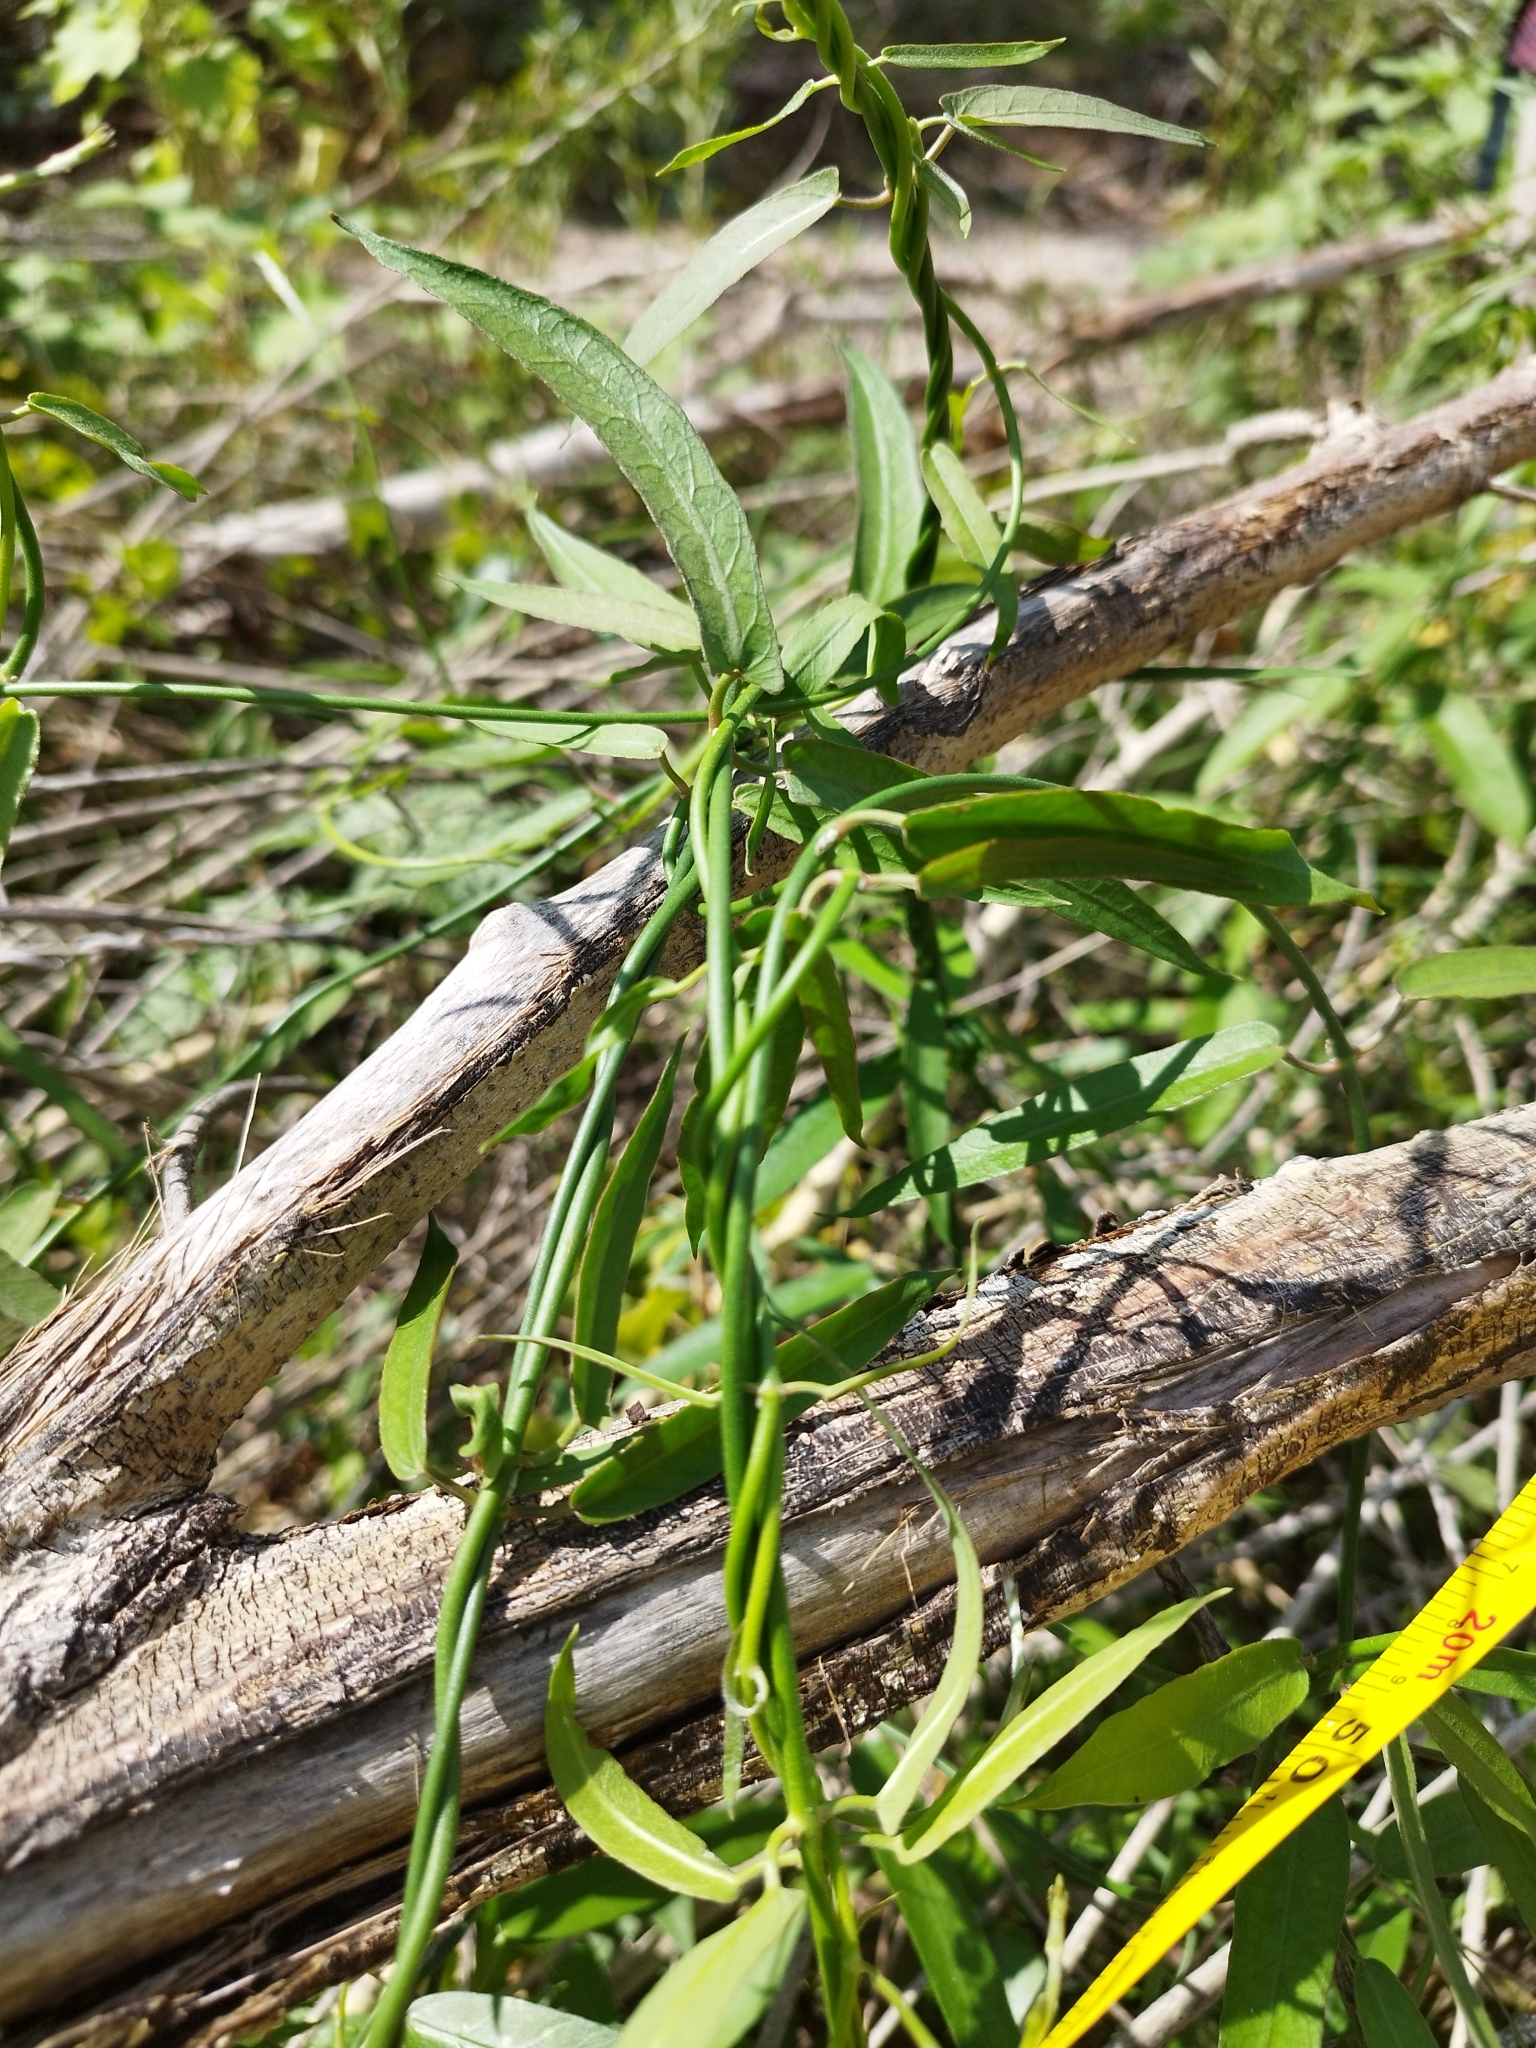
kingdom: Plantae
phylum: Tracheophyta
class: Magnoliopsida
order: Gentianales
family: Apocynaceae
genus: Funastrum
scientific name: Funastrum clausum
